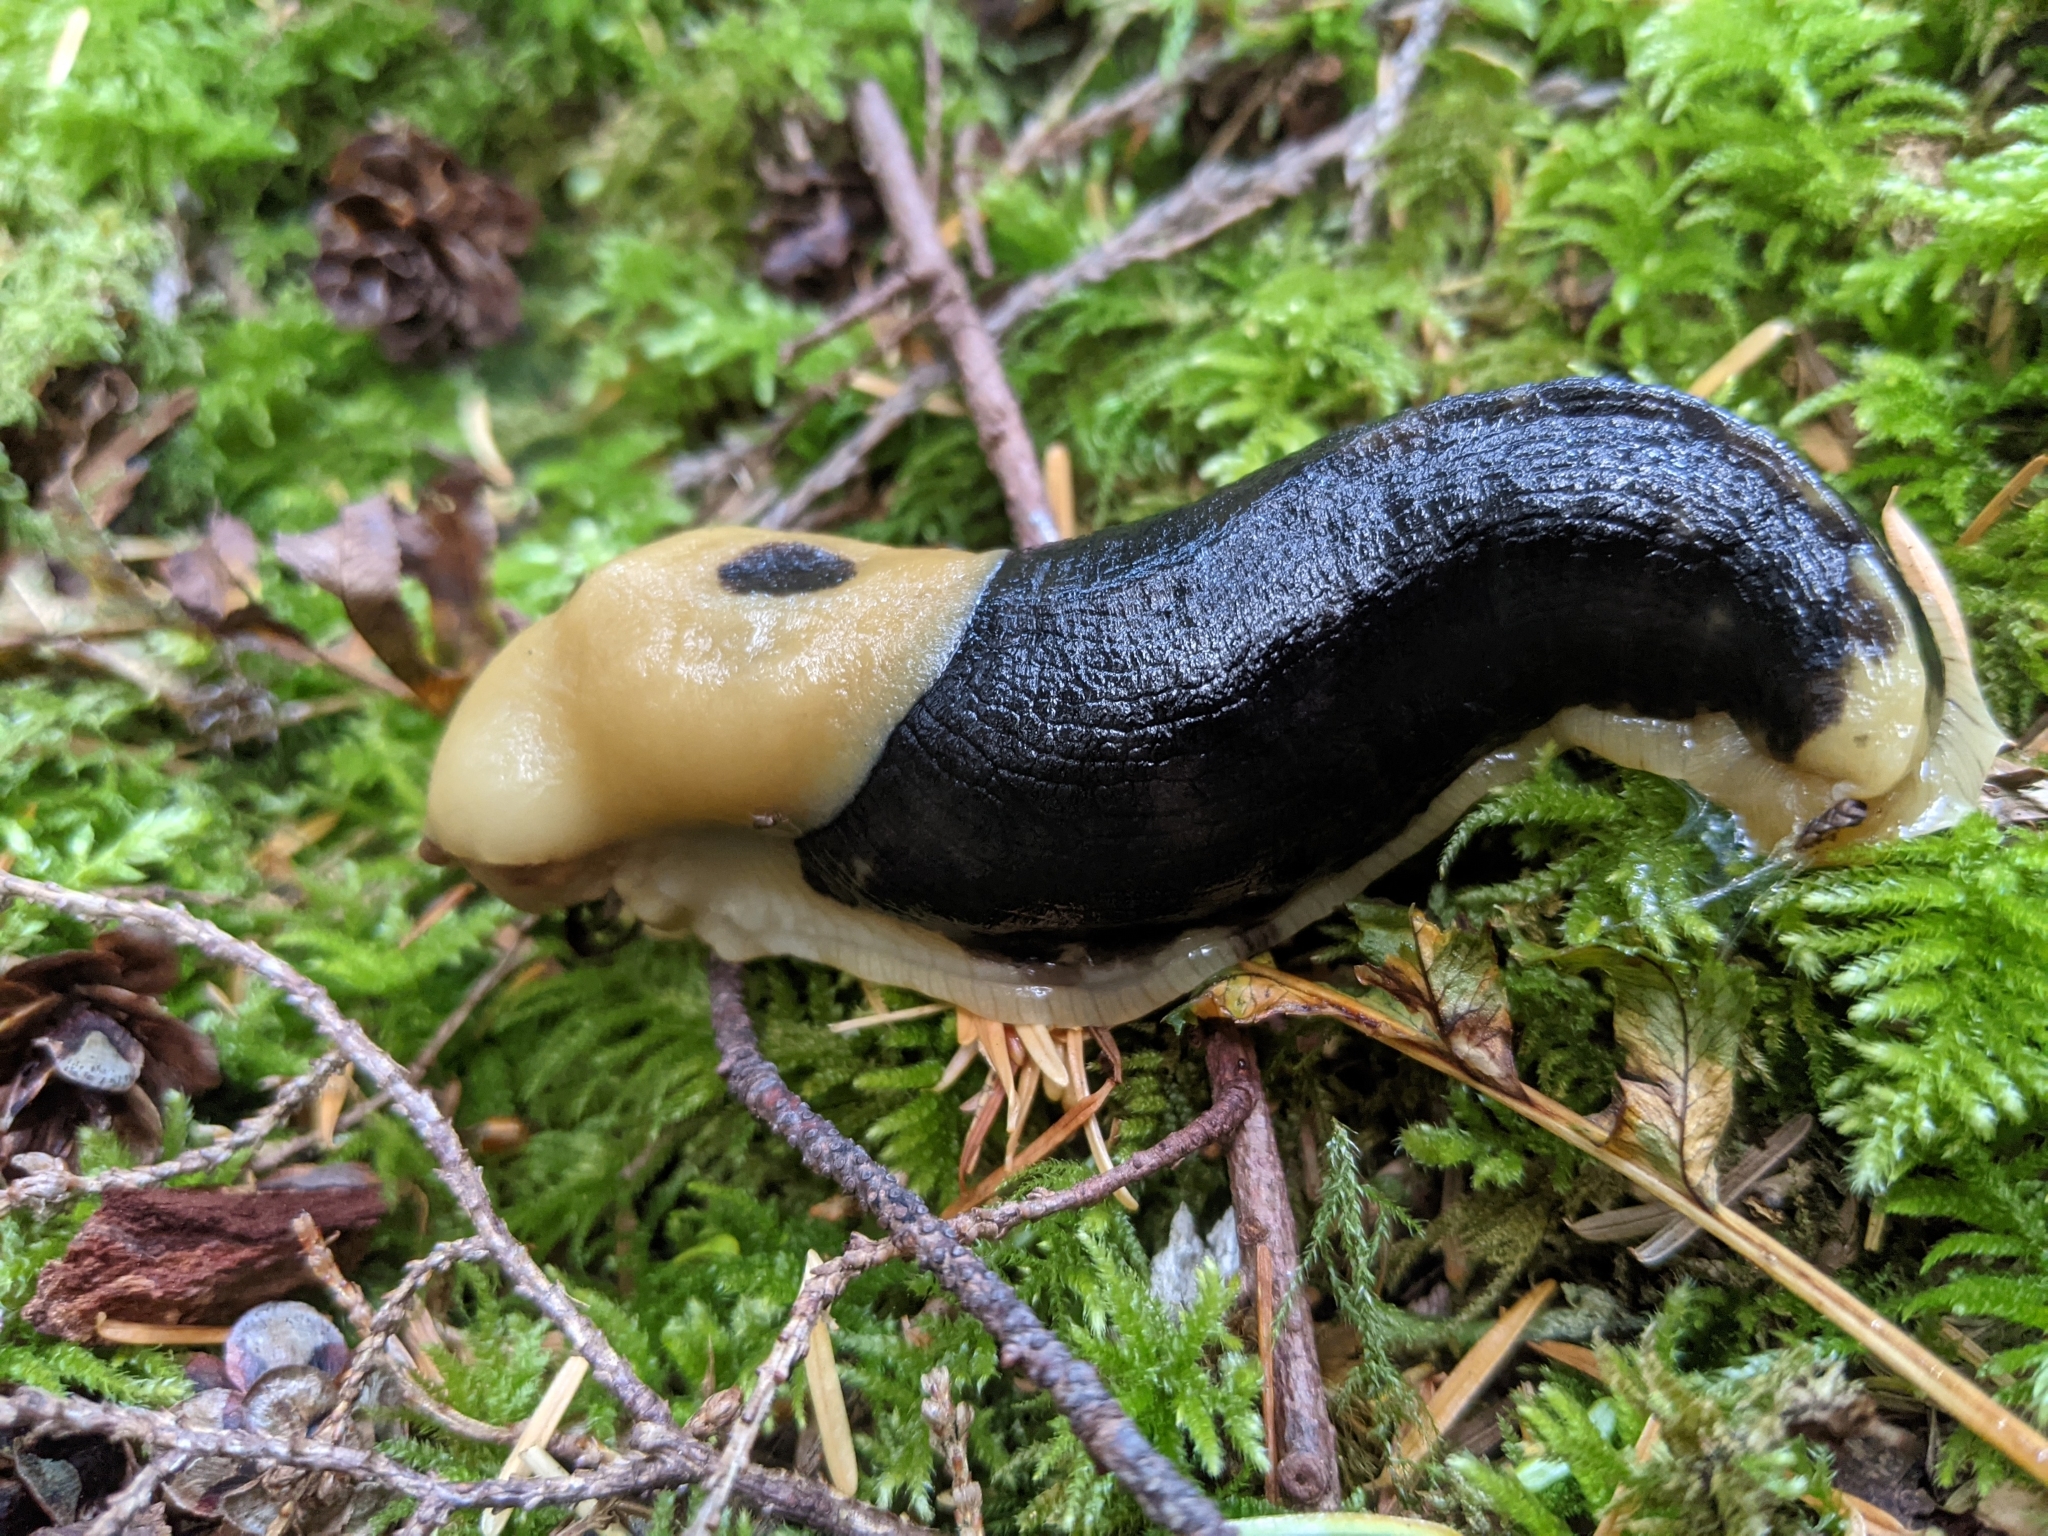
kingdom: Animalia
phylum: Mollusca
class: Gastropoda
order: Stylommatophora
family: Ariolimacidae
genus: Ariolimax
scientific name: Ariolimax columbianus
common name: Pacific banana slug
